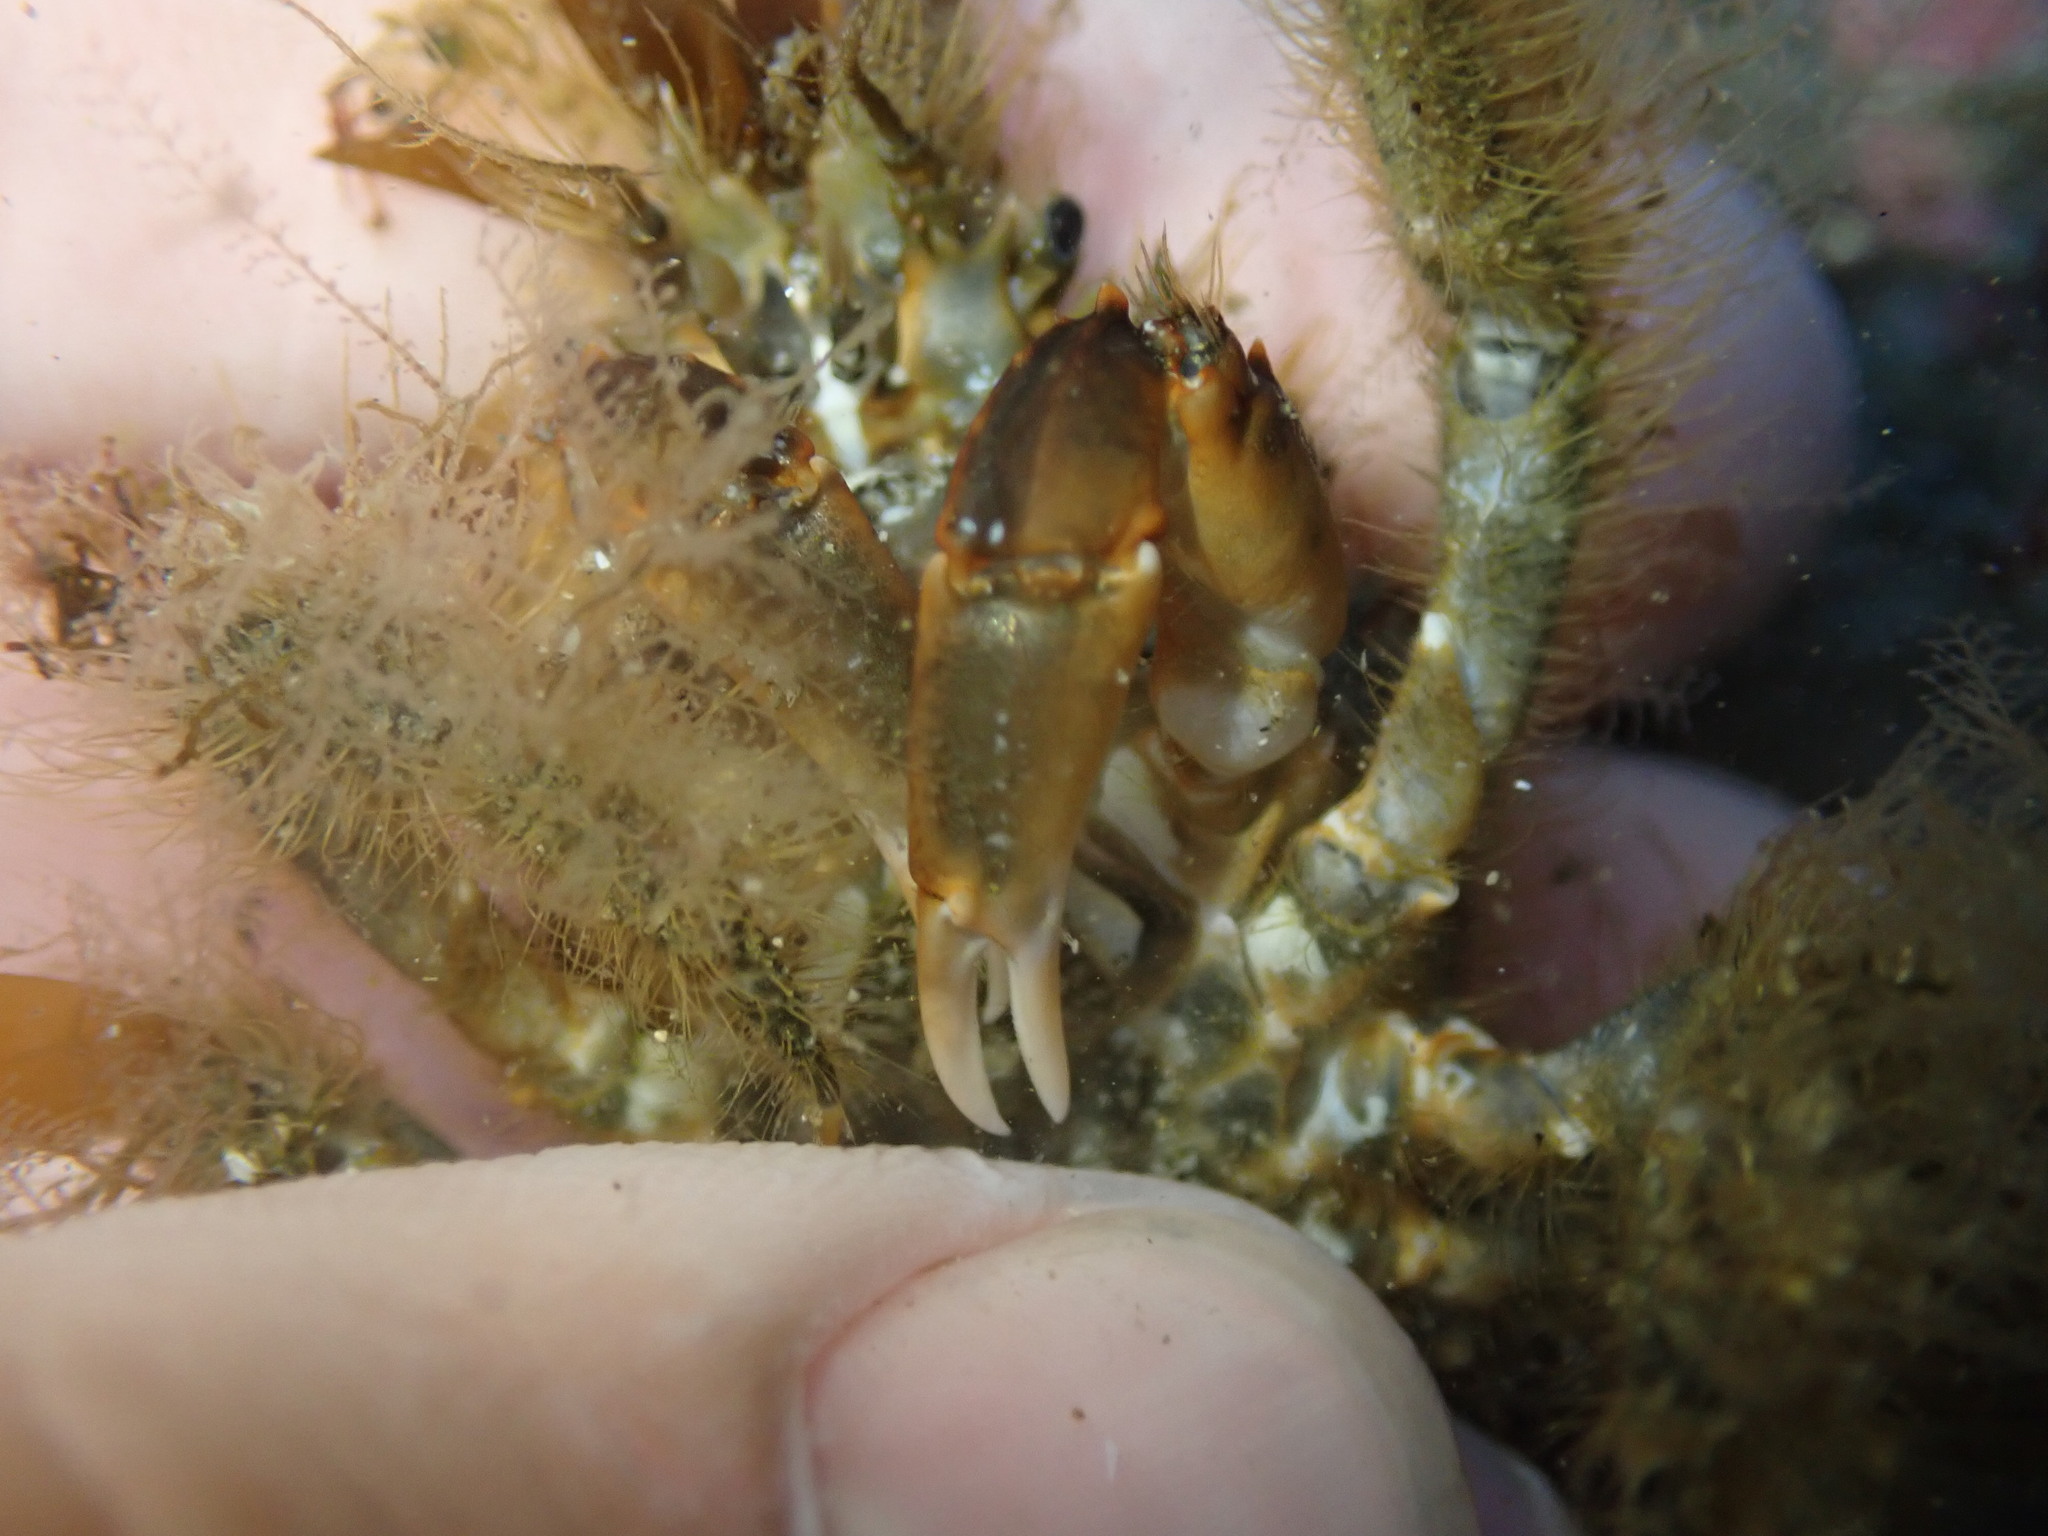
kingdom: Animalia
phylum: Arthropoda
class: Malacostraca
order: Decapoda
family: Majidae
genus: Notomithrax
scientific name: Notomithrax ursus
